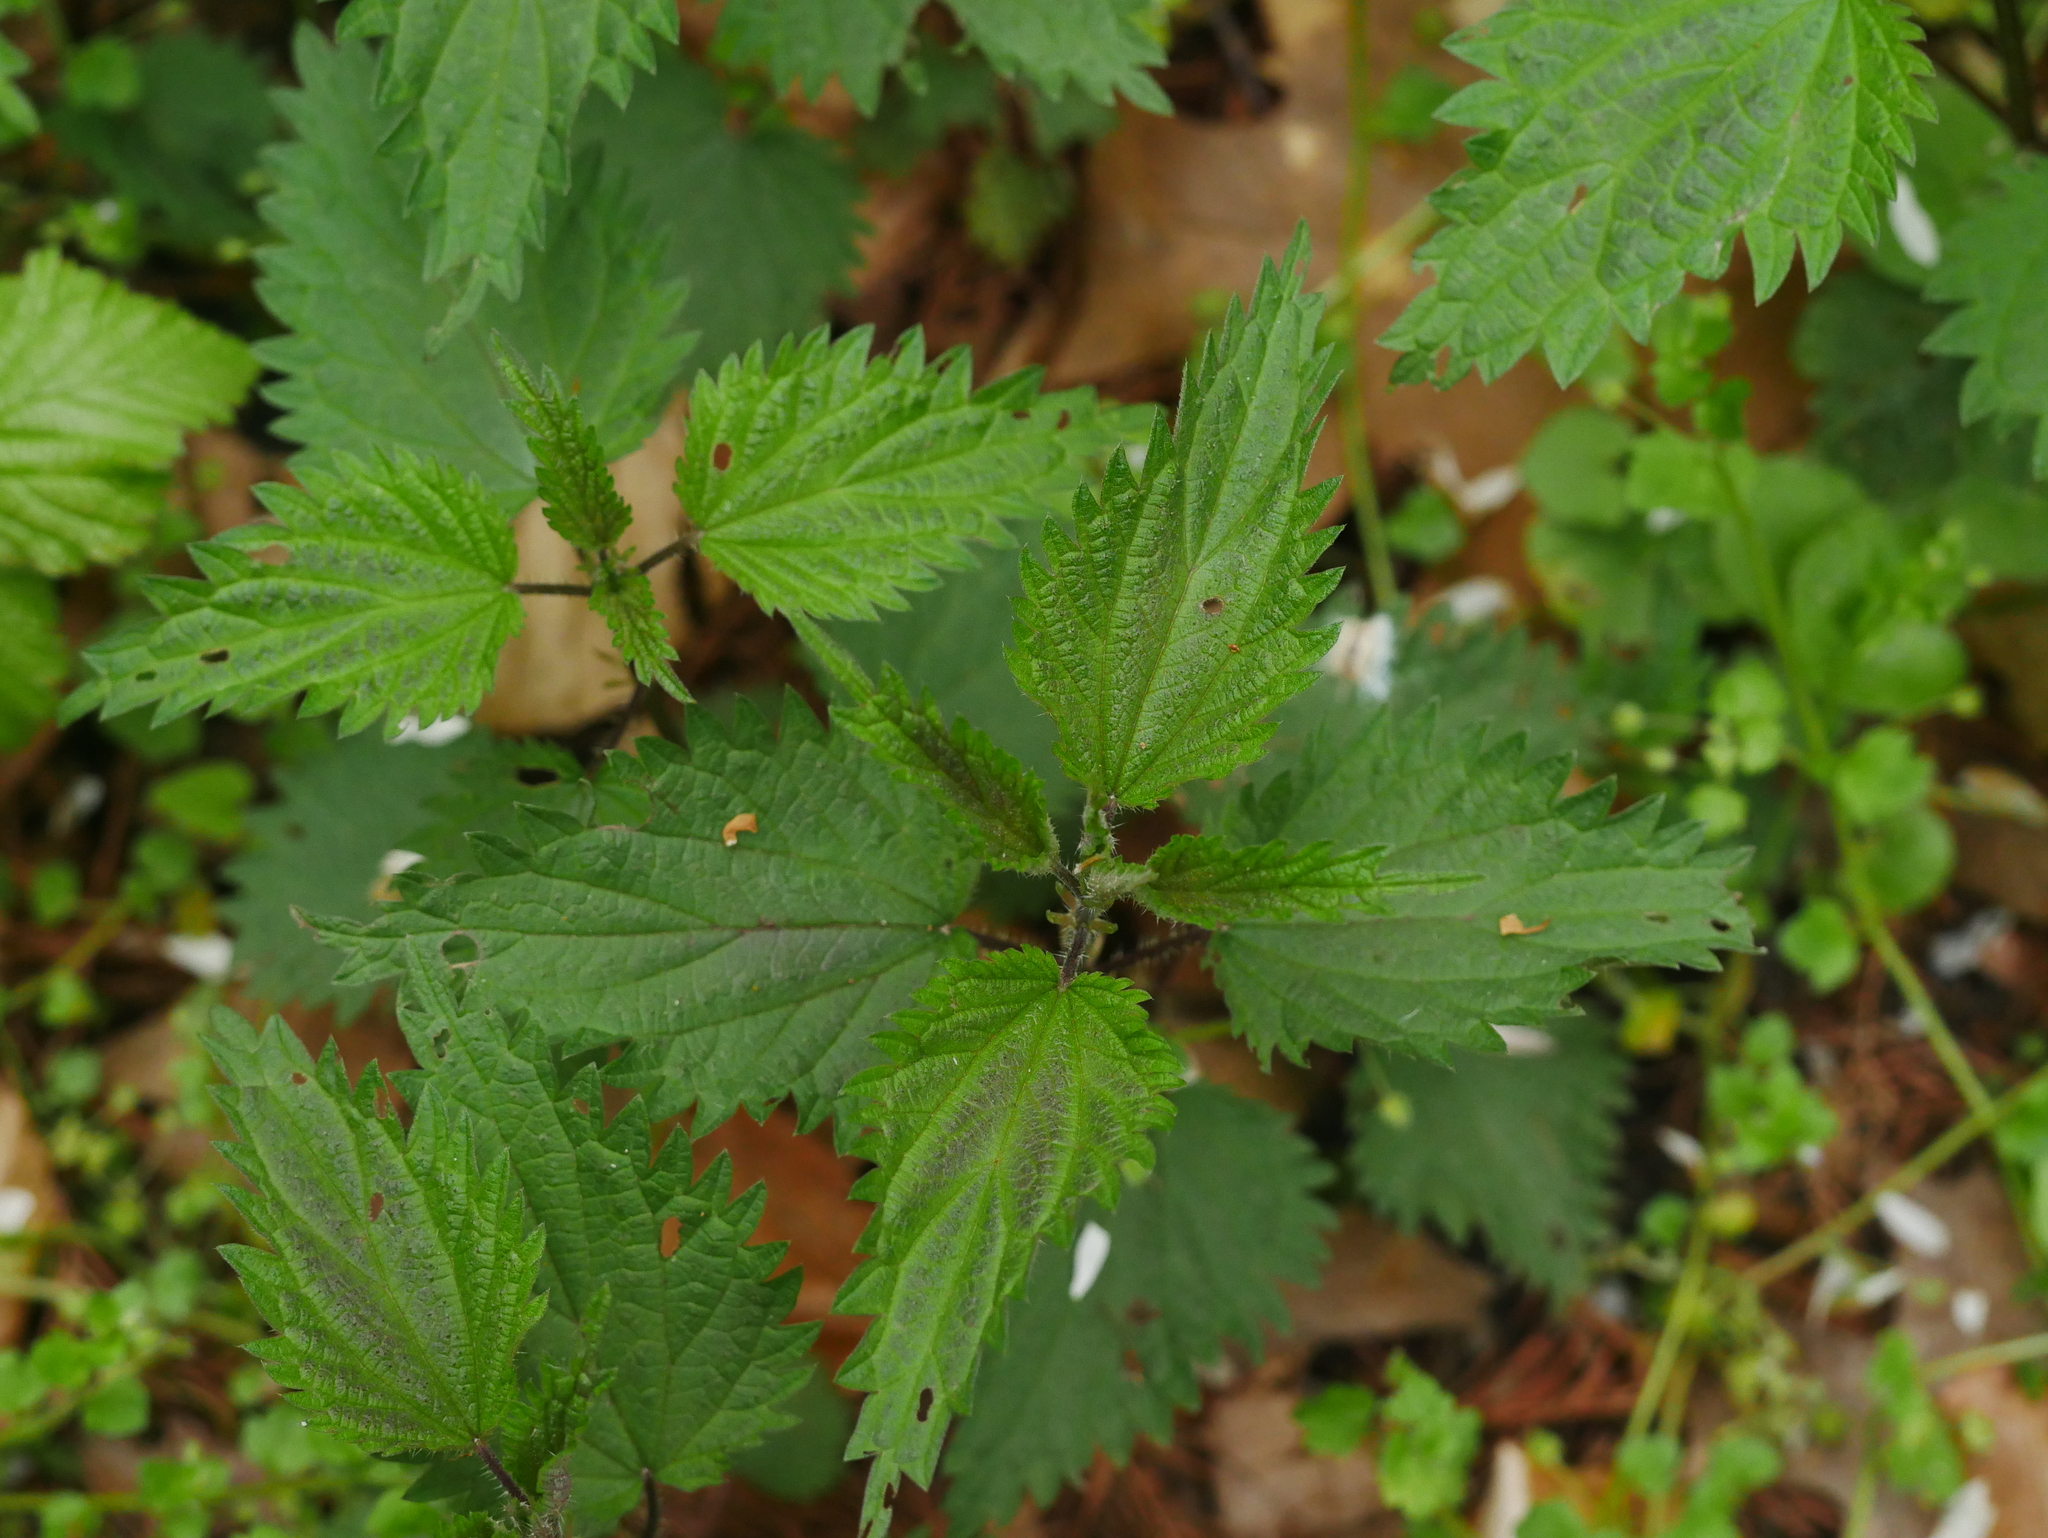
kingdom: Plantae
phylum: Tracheophyta
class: Magnoliopsida
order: Rosales
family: Urticaceae
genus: Urtica
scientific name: Urtica dioica
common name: Common nettle
